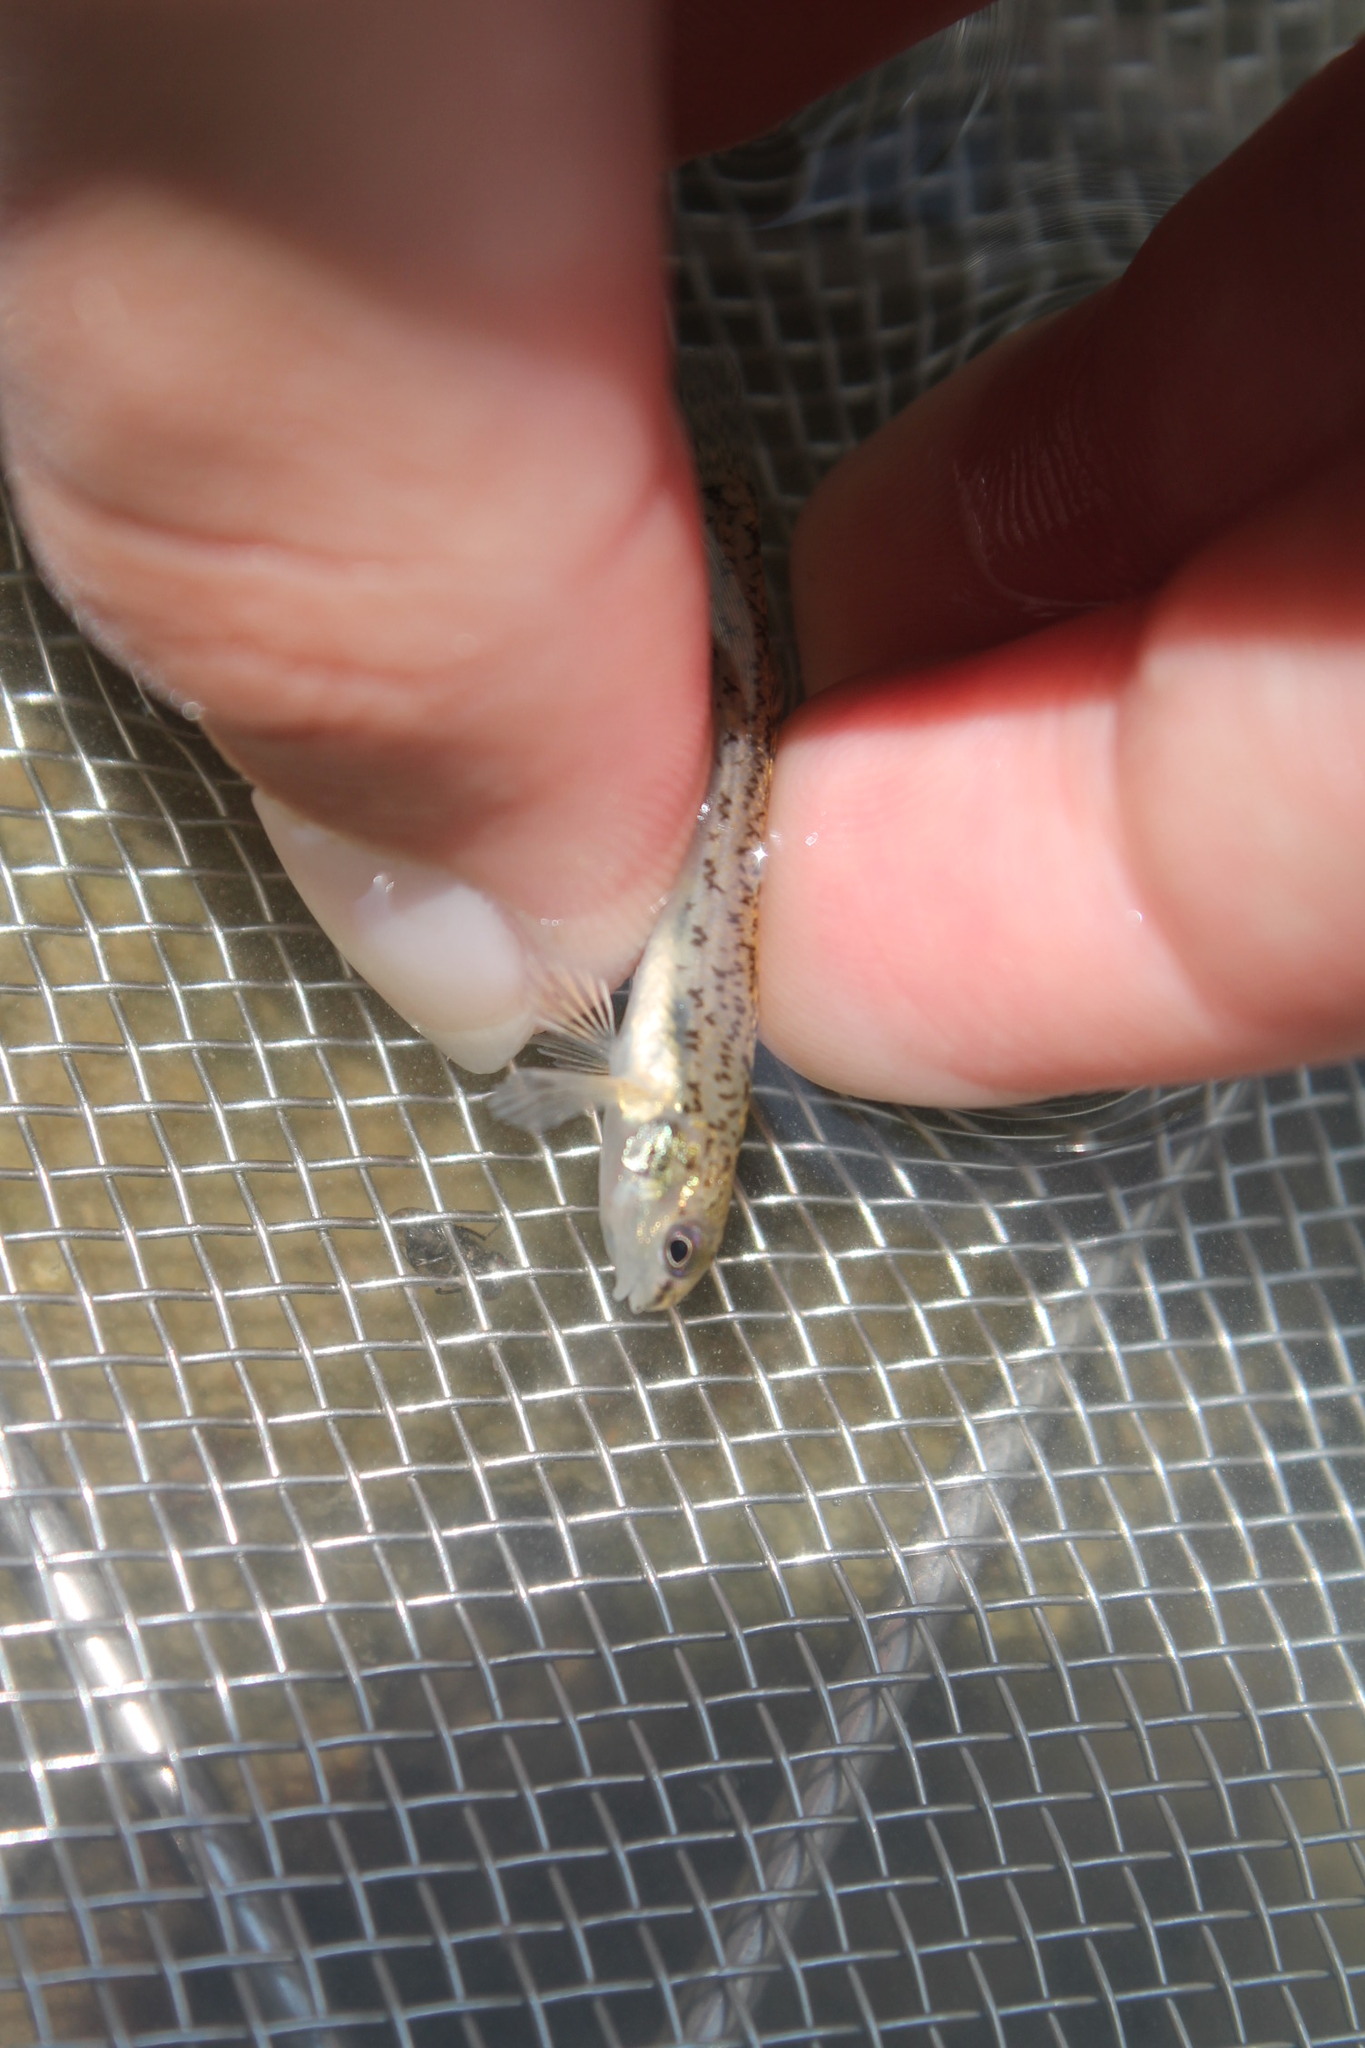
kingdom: Animalia
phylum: Chordata
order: Perciformes
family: Percidae
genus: Etheostoma
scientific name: Etheostoma nigrum
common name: Johnny darter
